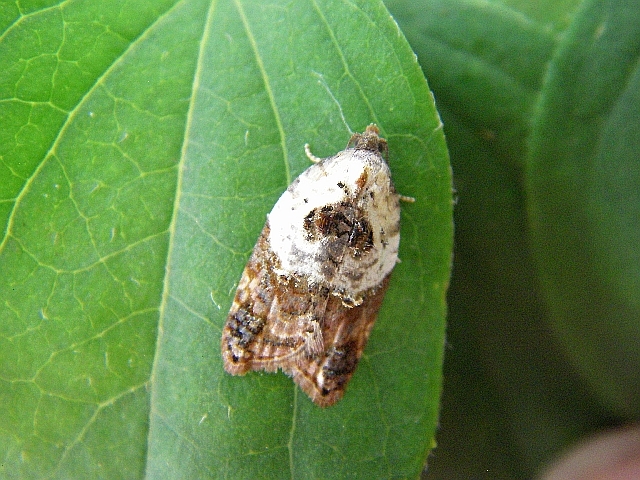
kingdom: Animalia
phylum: Arthropoda
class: Insecta
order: Lepidoptera
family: Tortricidae
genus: Acleris
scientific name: Acleris variegana
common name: Garden rose tortrix
